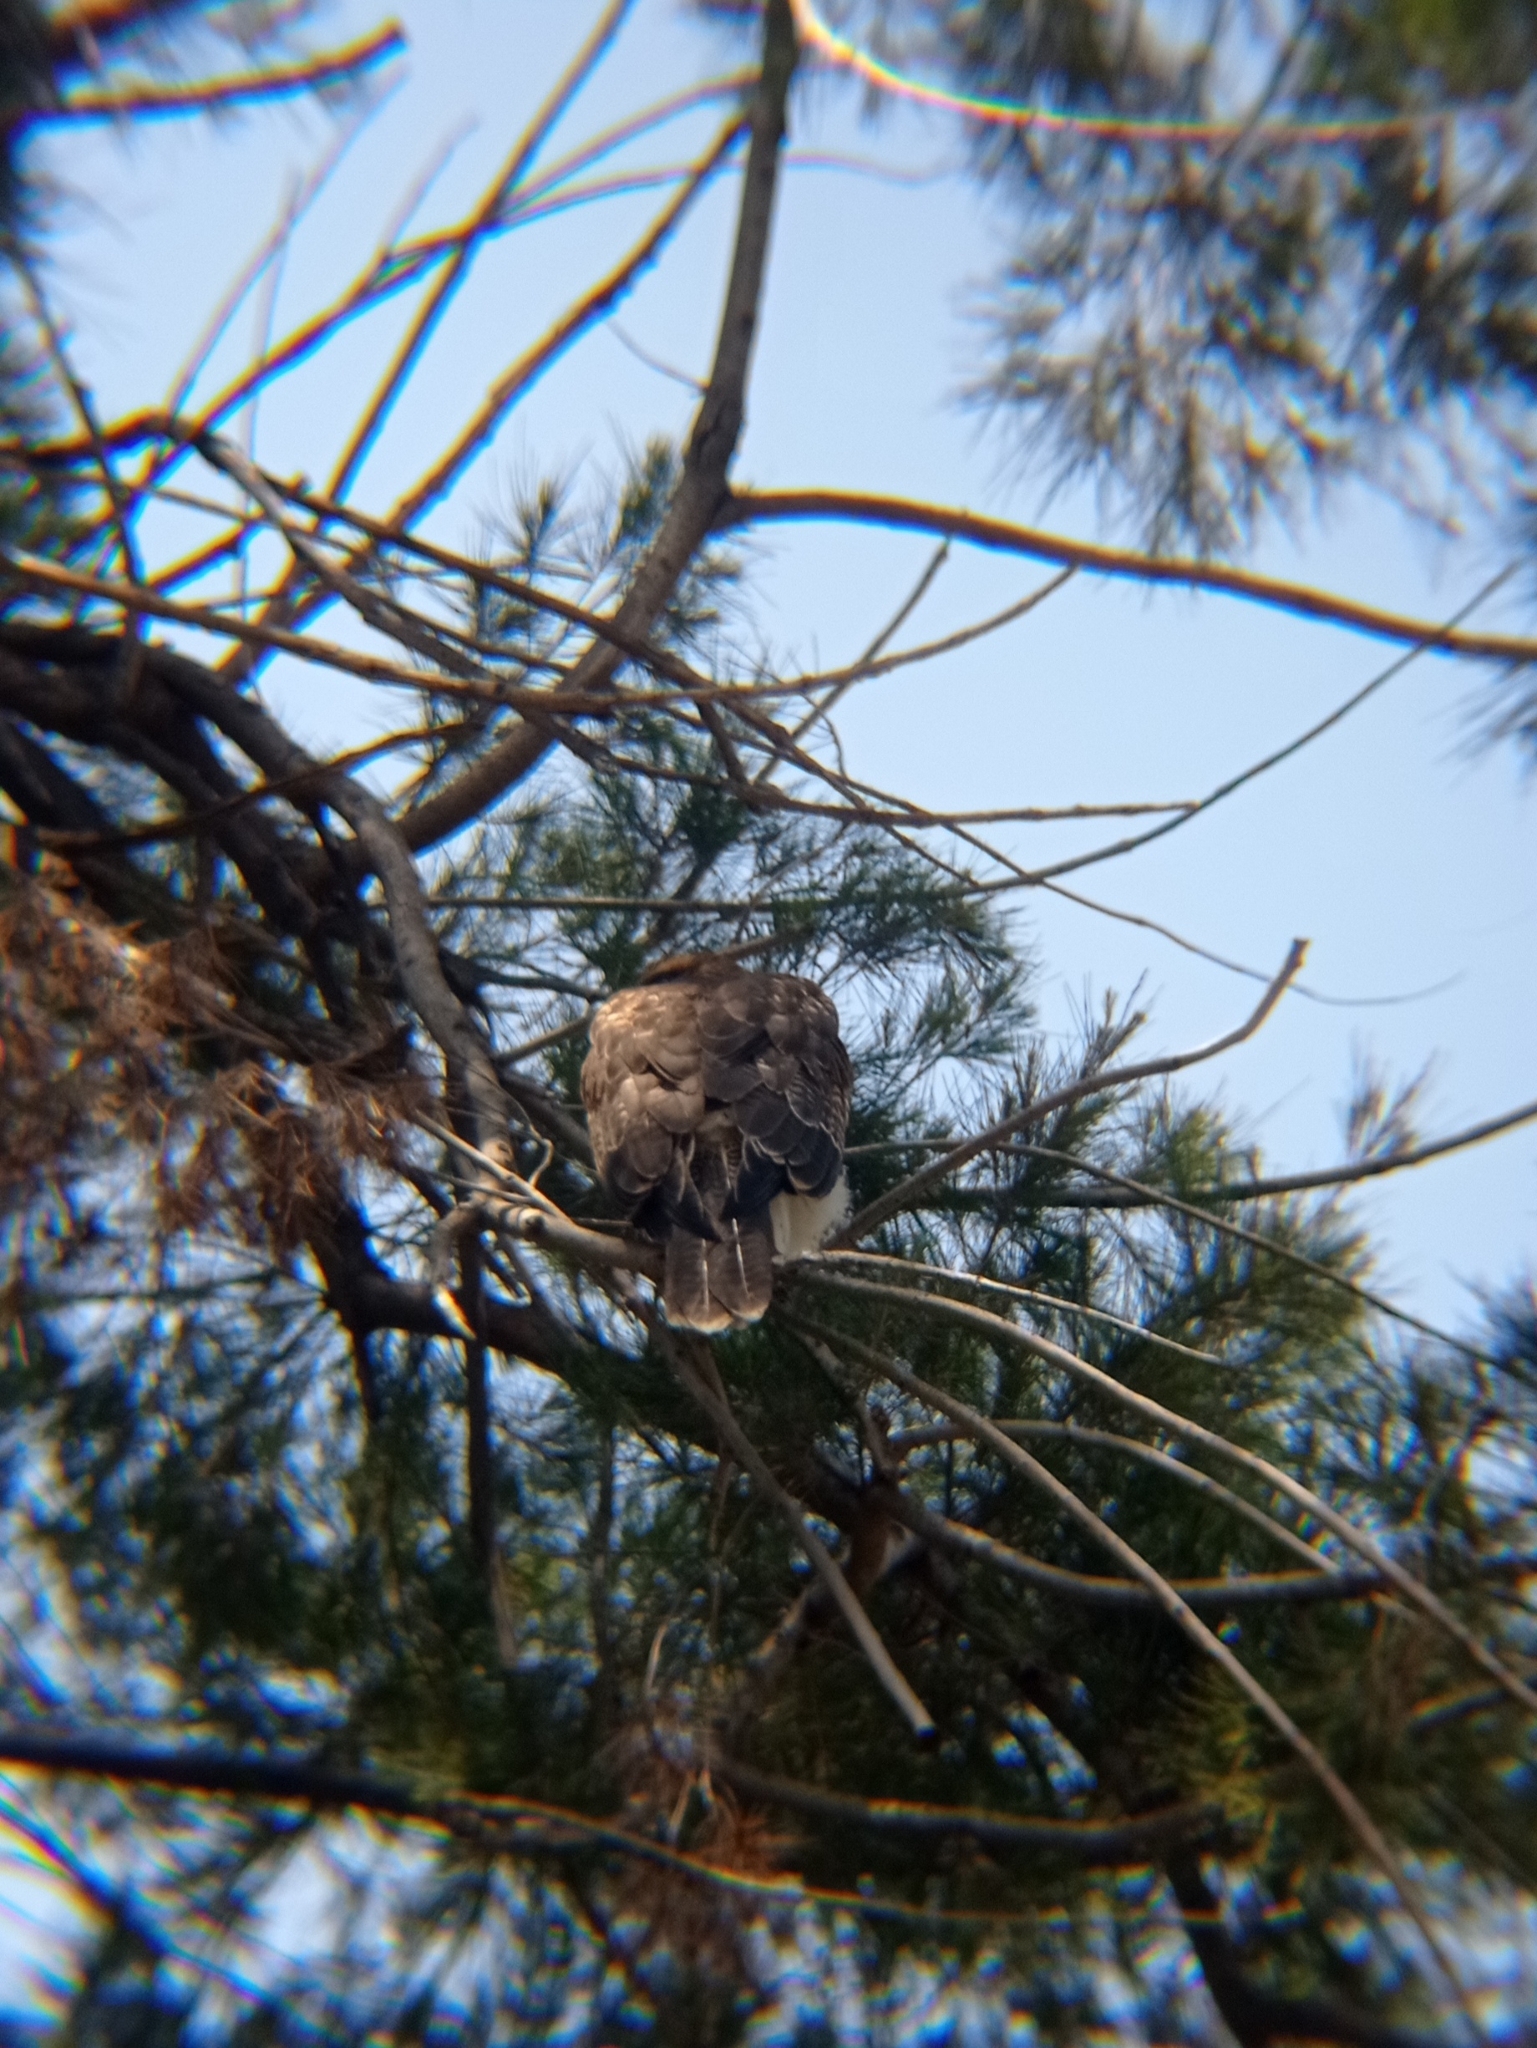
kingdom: Animalia
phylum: Chordata
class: Aves
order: Accipitriformes
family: Accipitridae
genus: Parabuteo
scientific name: Parabuteo unicinctus
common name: Harris's hawk
